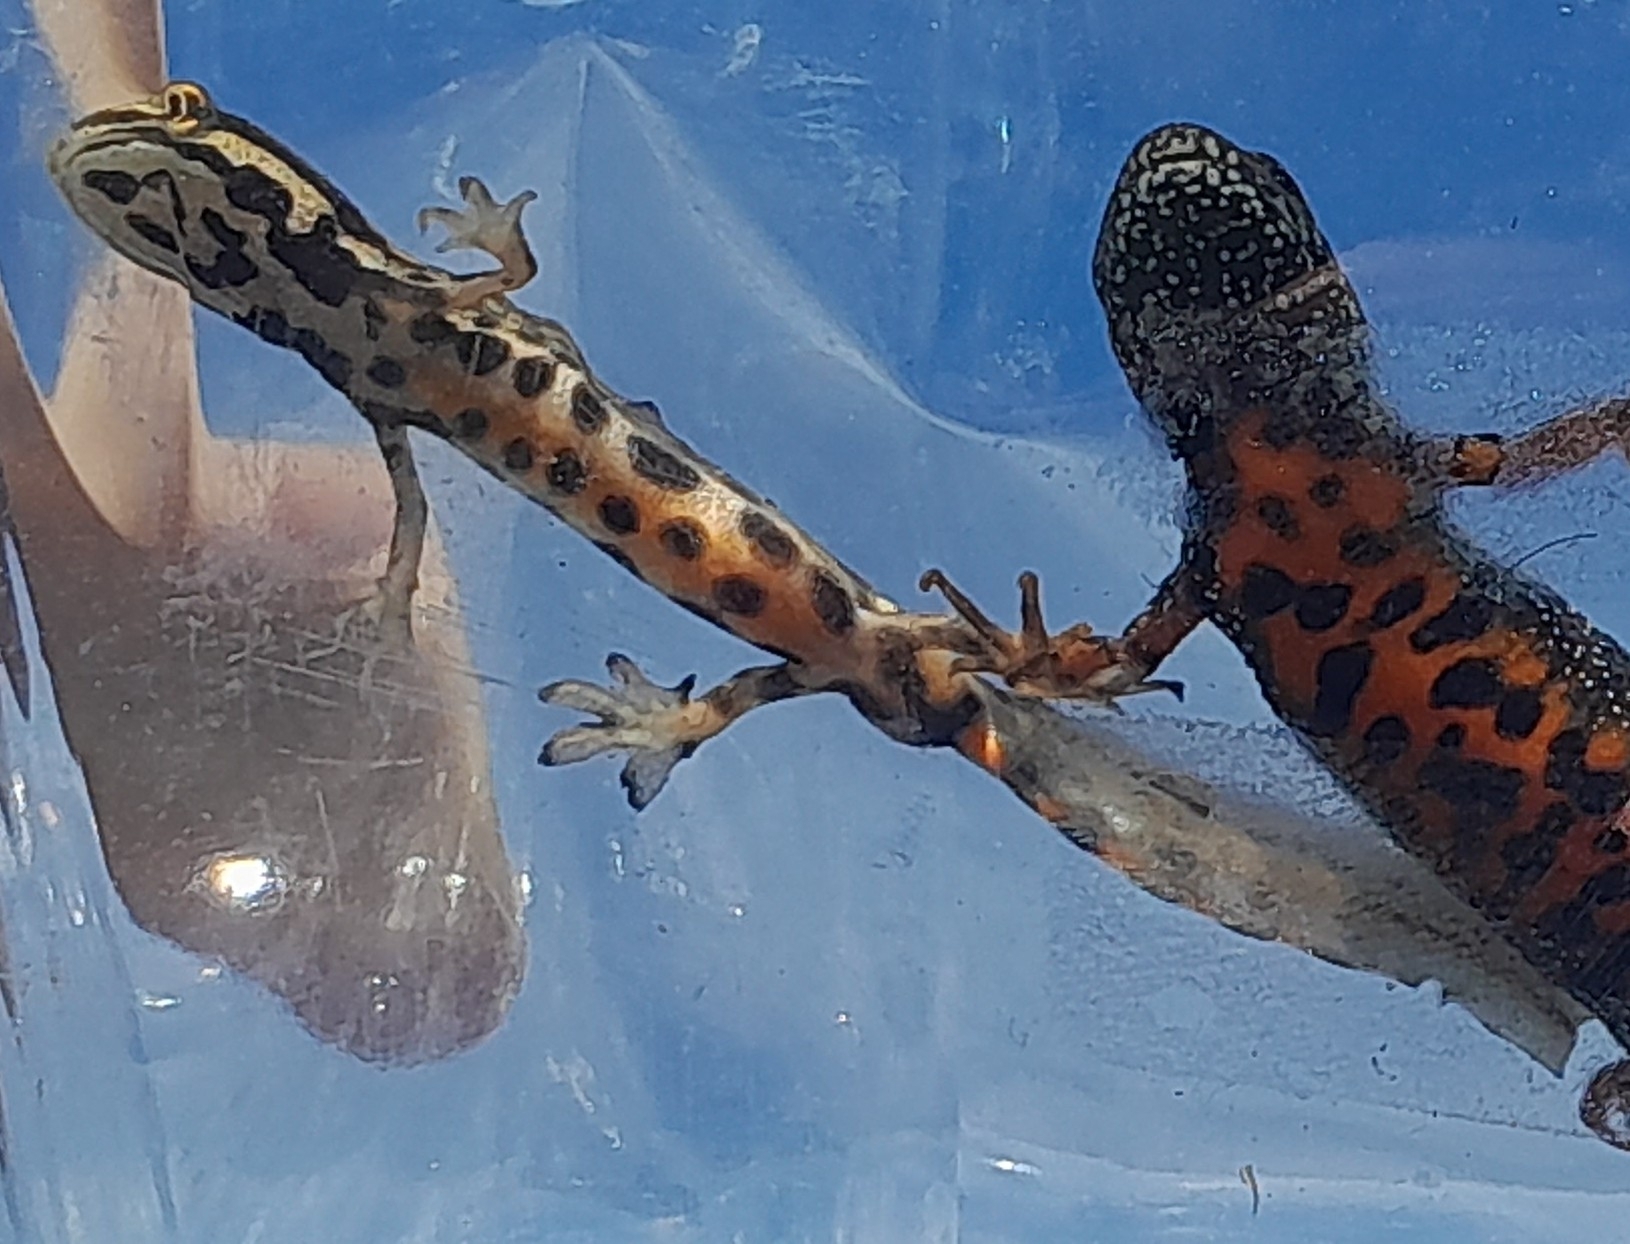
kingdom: Animalia
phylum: Chordata
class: Amphibia
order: Caudata
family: Salamandridae
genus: Lissotriton
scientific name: Lissotriton vulgaris
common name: Smooth newt
